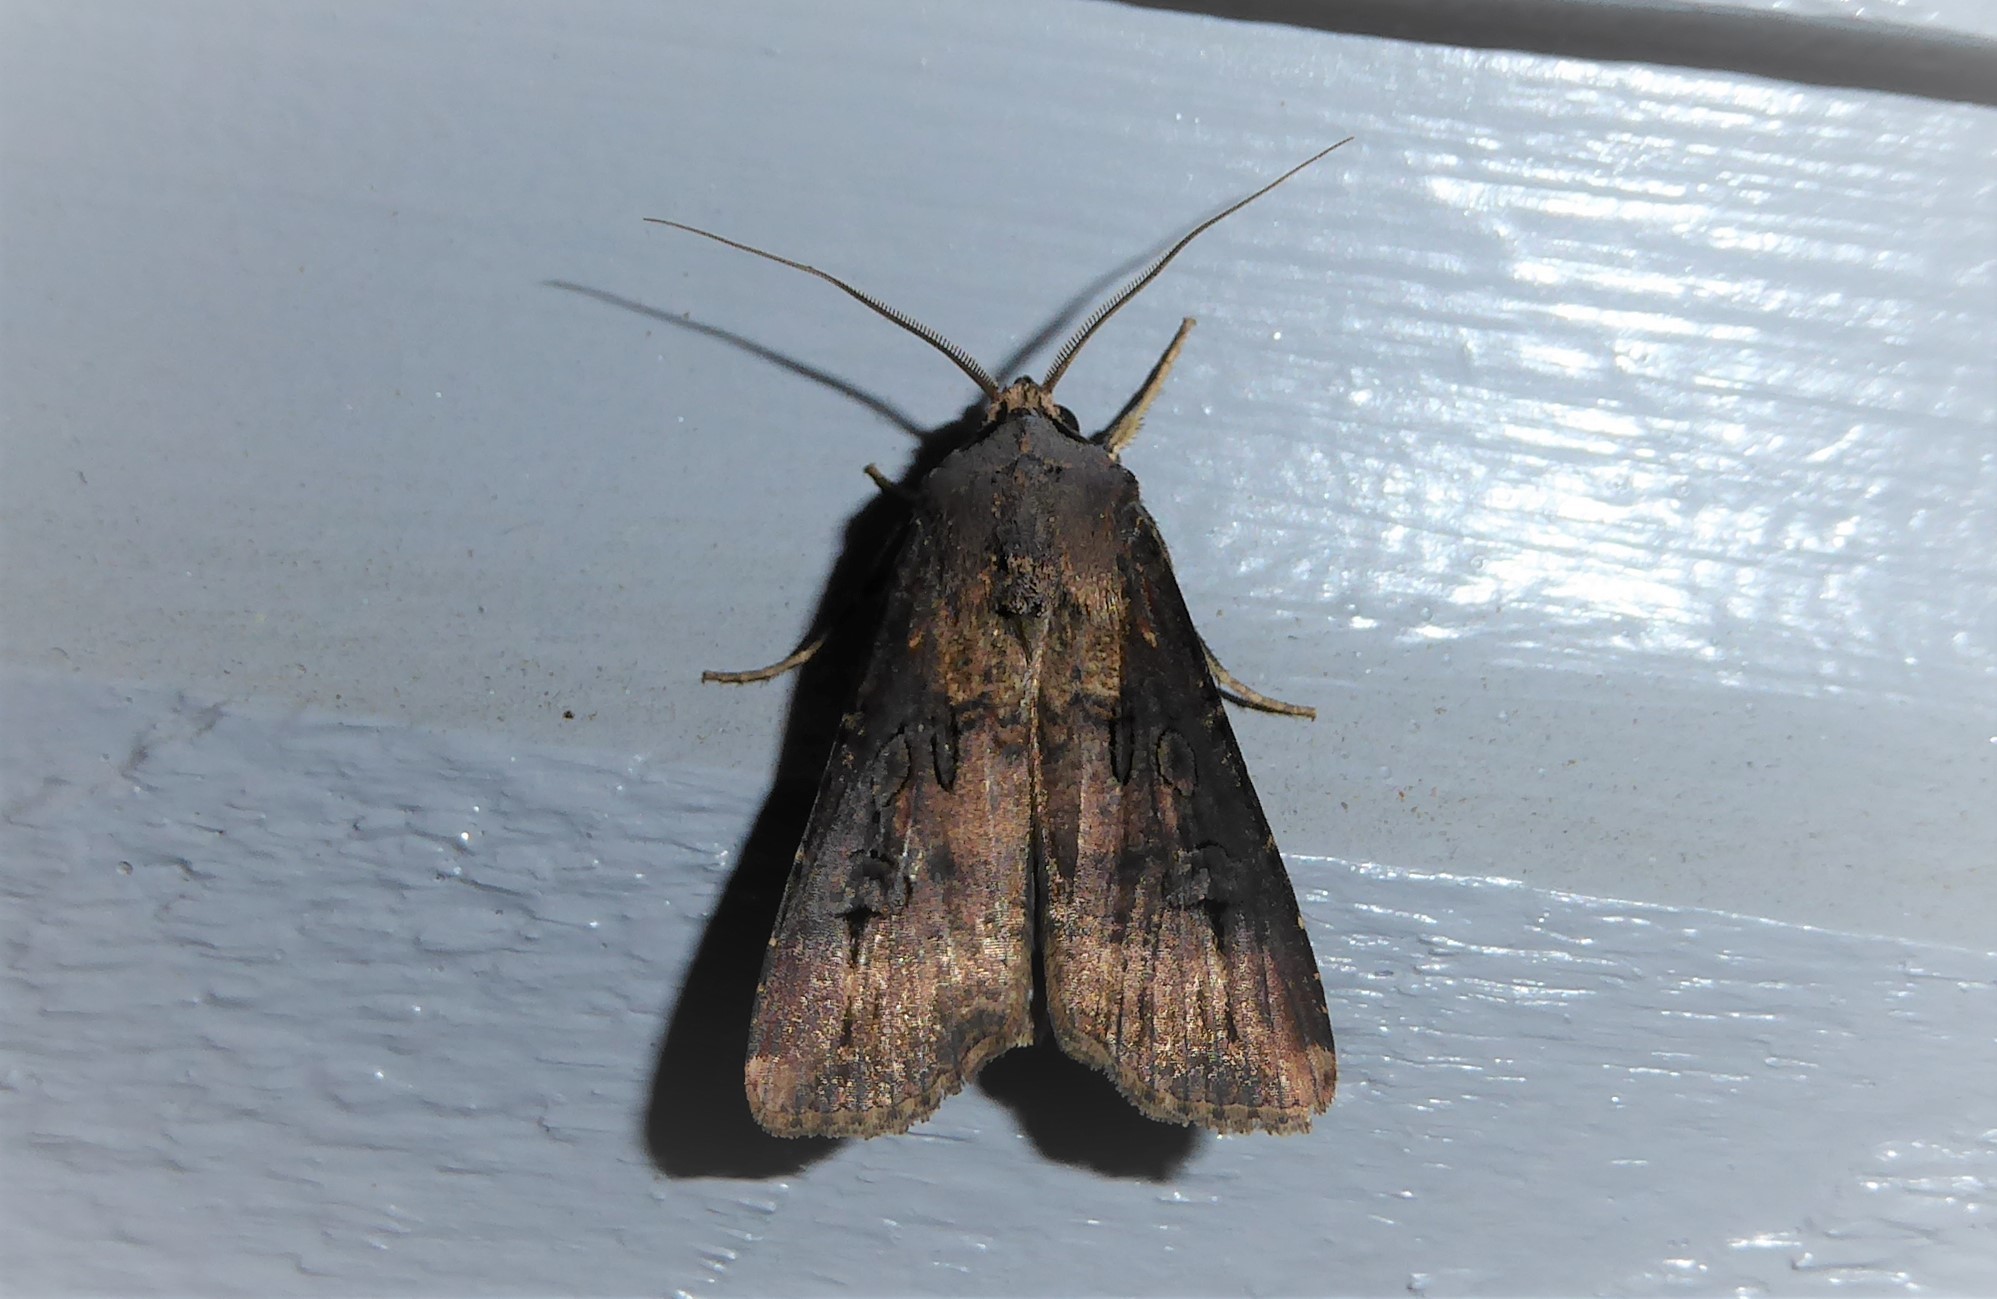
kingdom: Animalia
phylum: Arthropoda
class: Insecta
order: Lepidoptera
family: Noctuidae
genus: Agrotis
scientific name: Agrotis ipsilon
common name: Dark sword-grass
